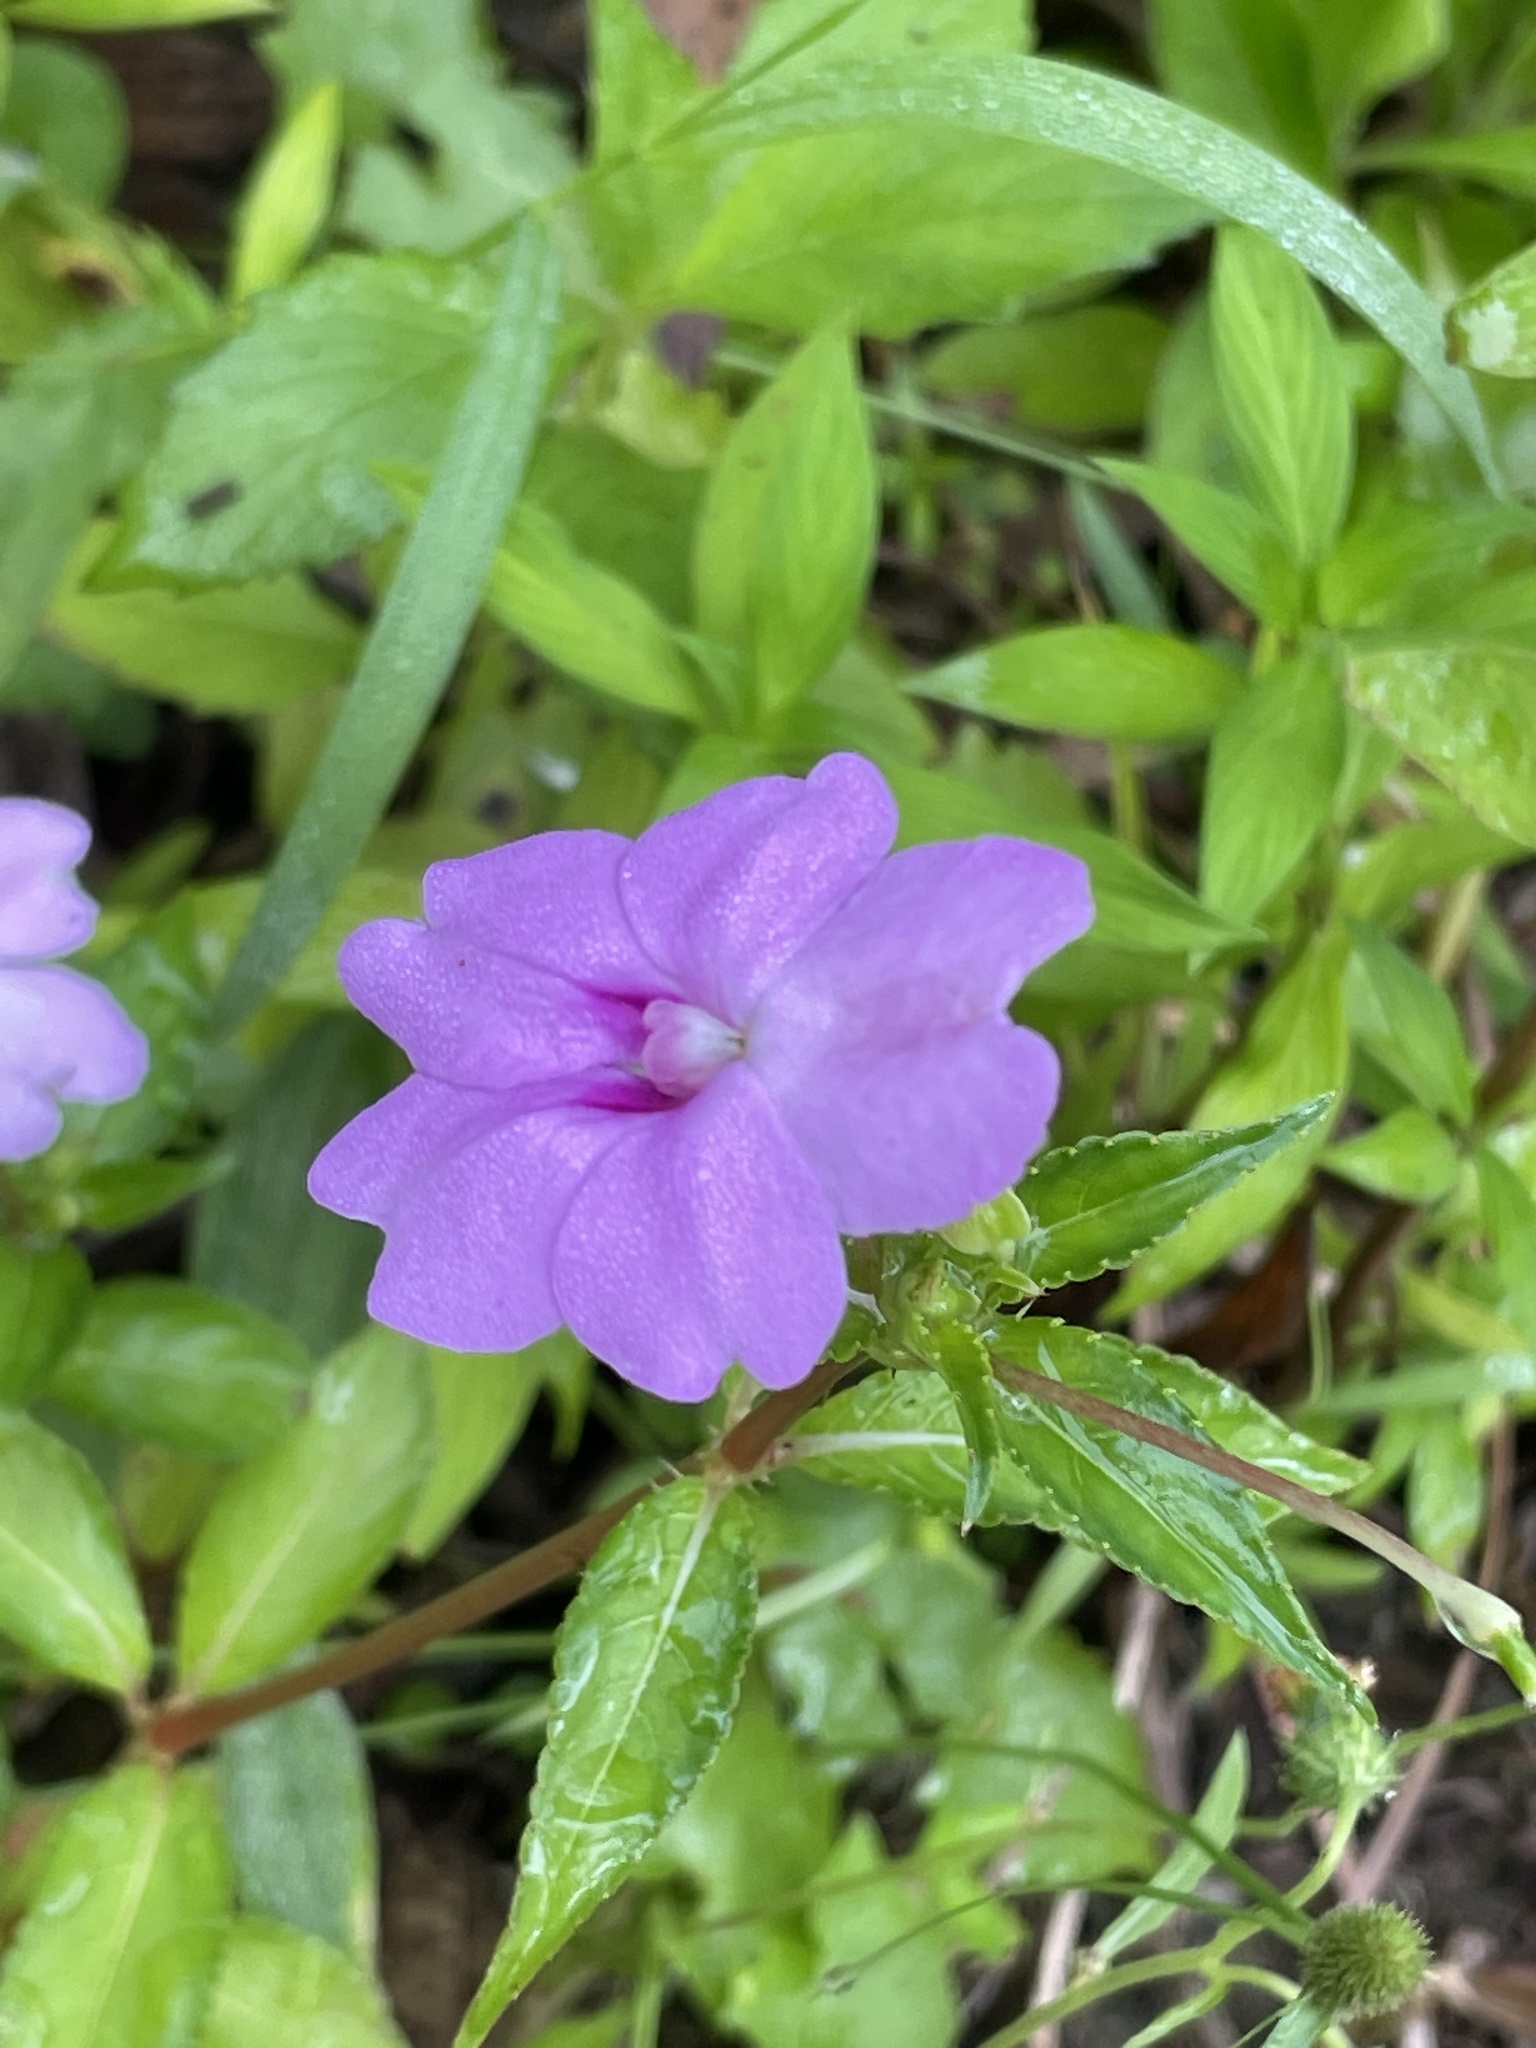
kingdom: Plantae
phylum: Tracheophyta
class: Magnoliopsida
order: Ericales
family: Balsaminaceae
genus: Impatiens
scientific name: Impatiens platypetala
